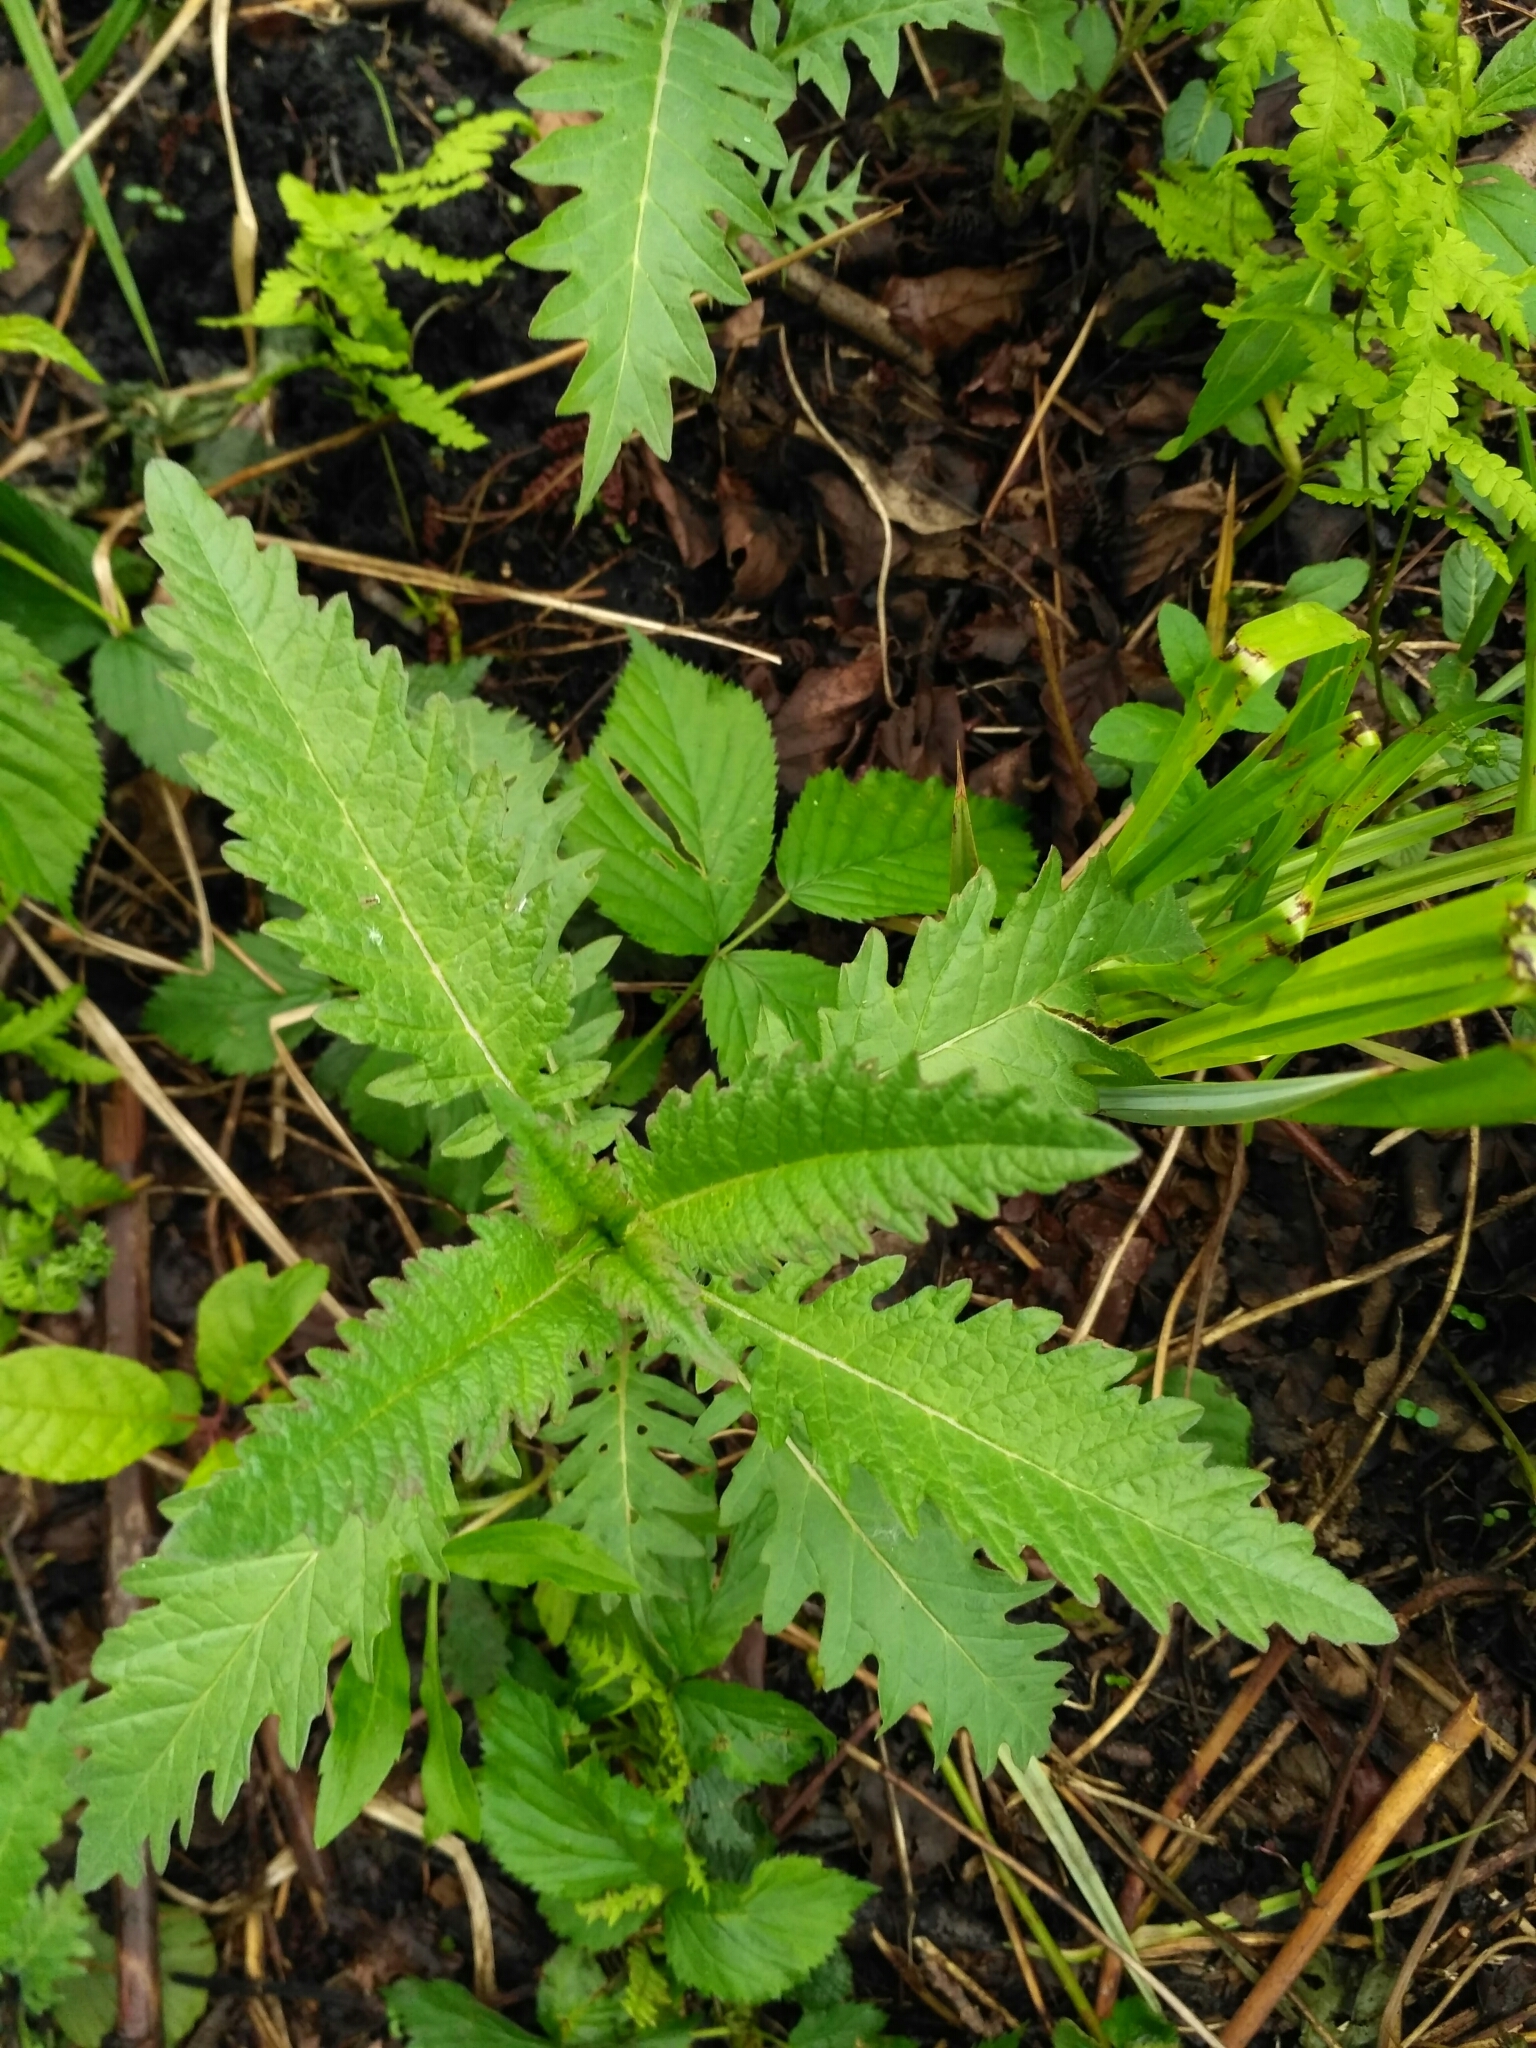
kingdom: Plantae
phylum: Tracheophyta
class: Magnoliopsida
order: Lamiales
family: Lamiaceae
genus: Lycopus
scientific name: Lycopus europaeus
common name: European bugleweed
